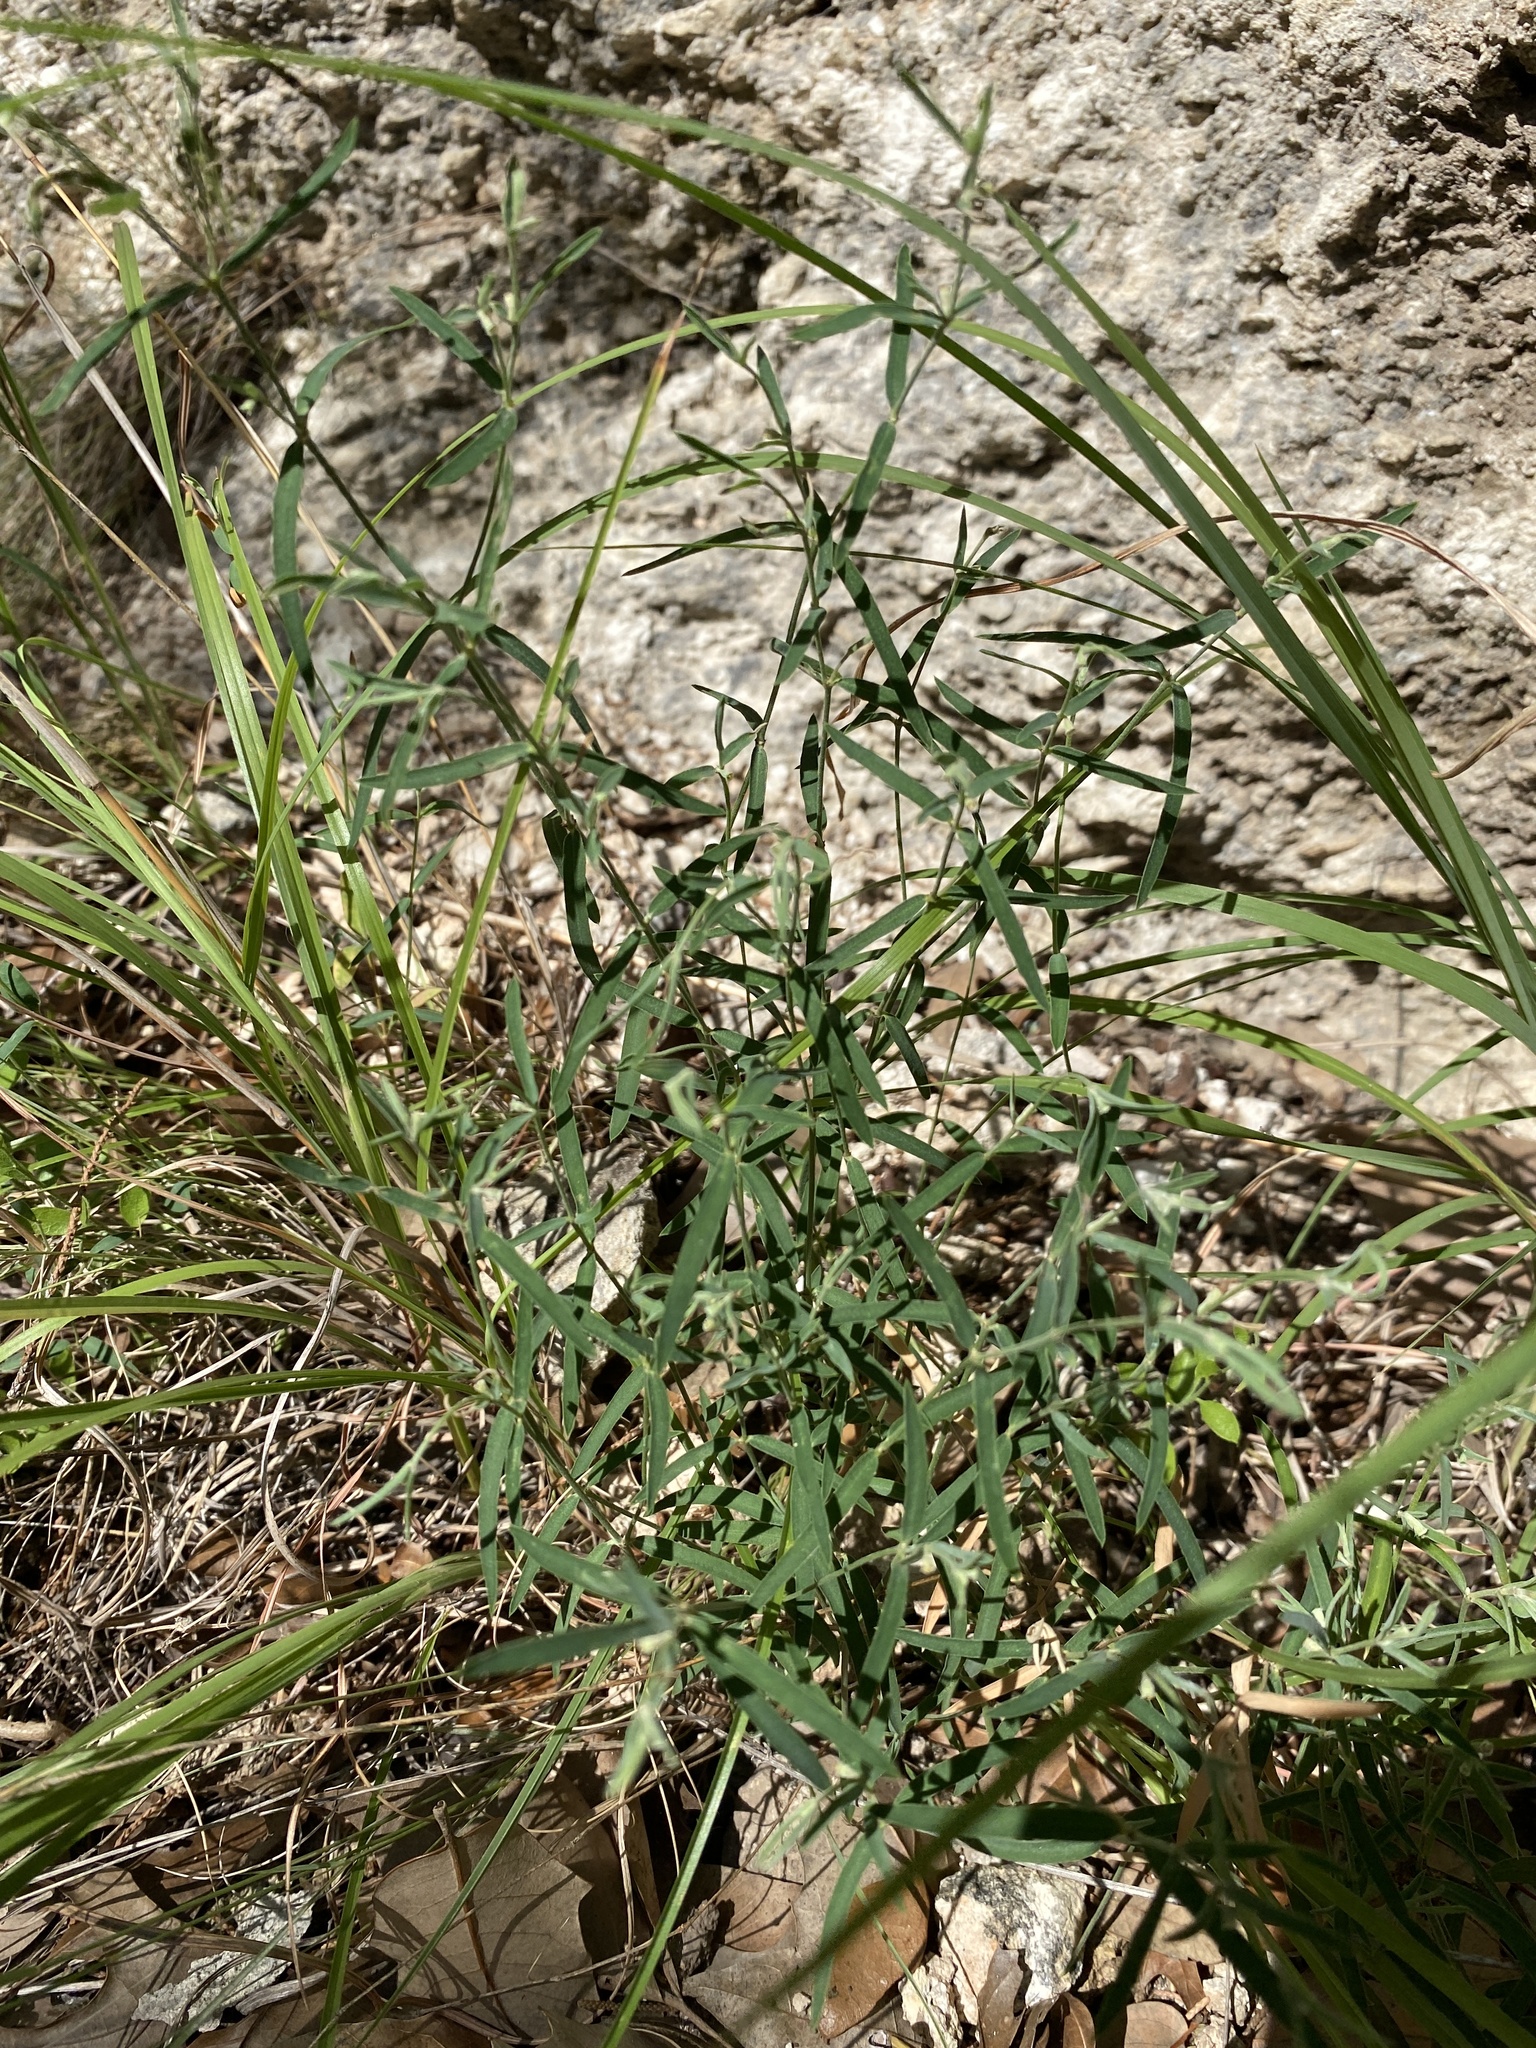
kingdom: Plantae
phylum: Tracheophyta
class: Magnoliopsida
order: Malpighiales
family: Euphorbiaceae
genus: Euphorbia
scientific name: Euphorbia angusta
